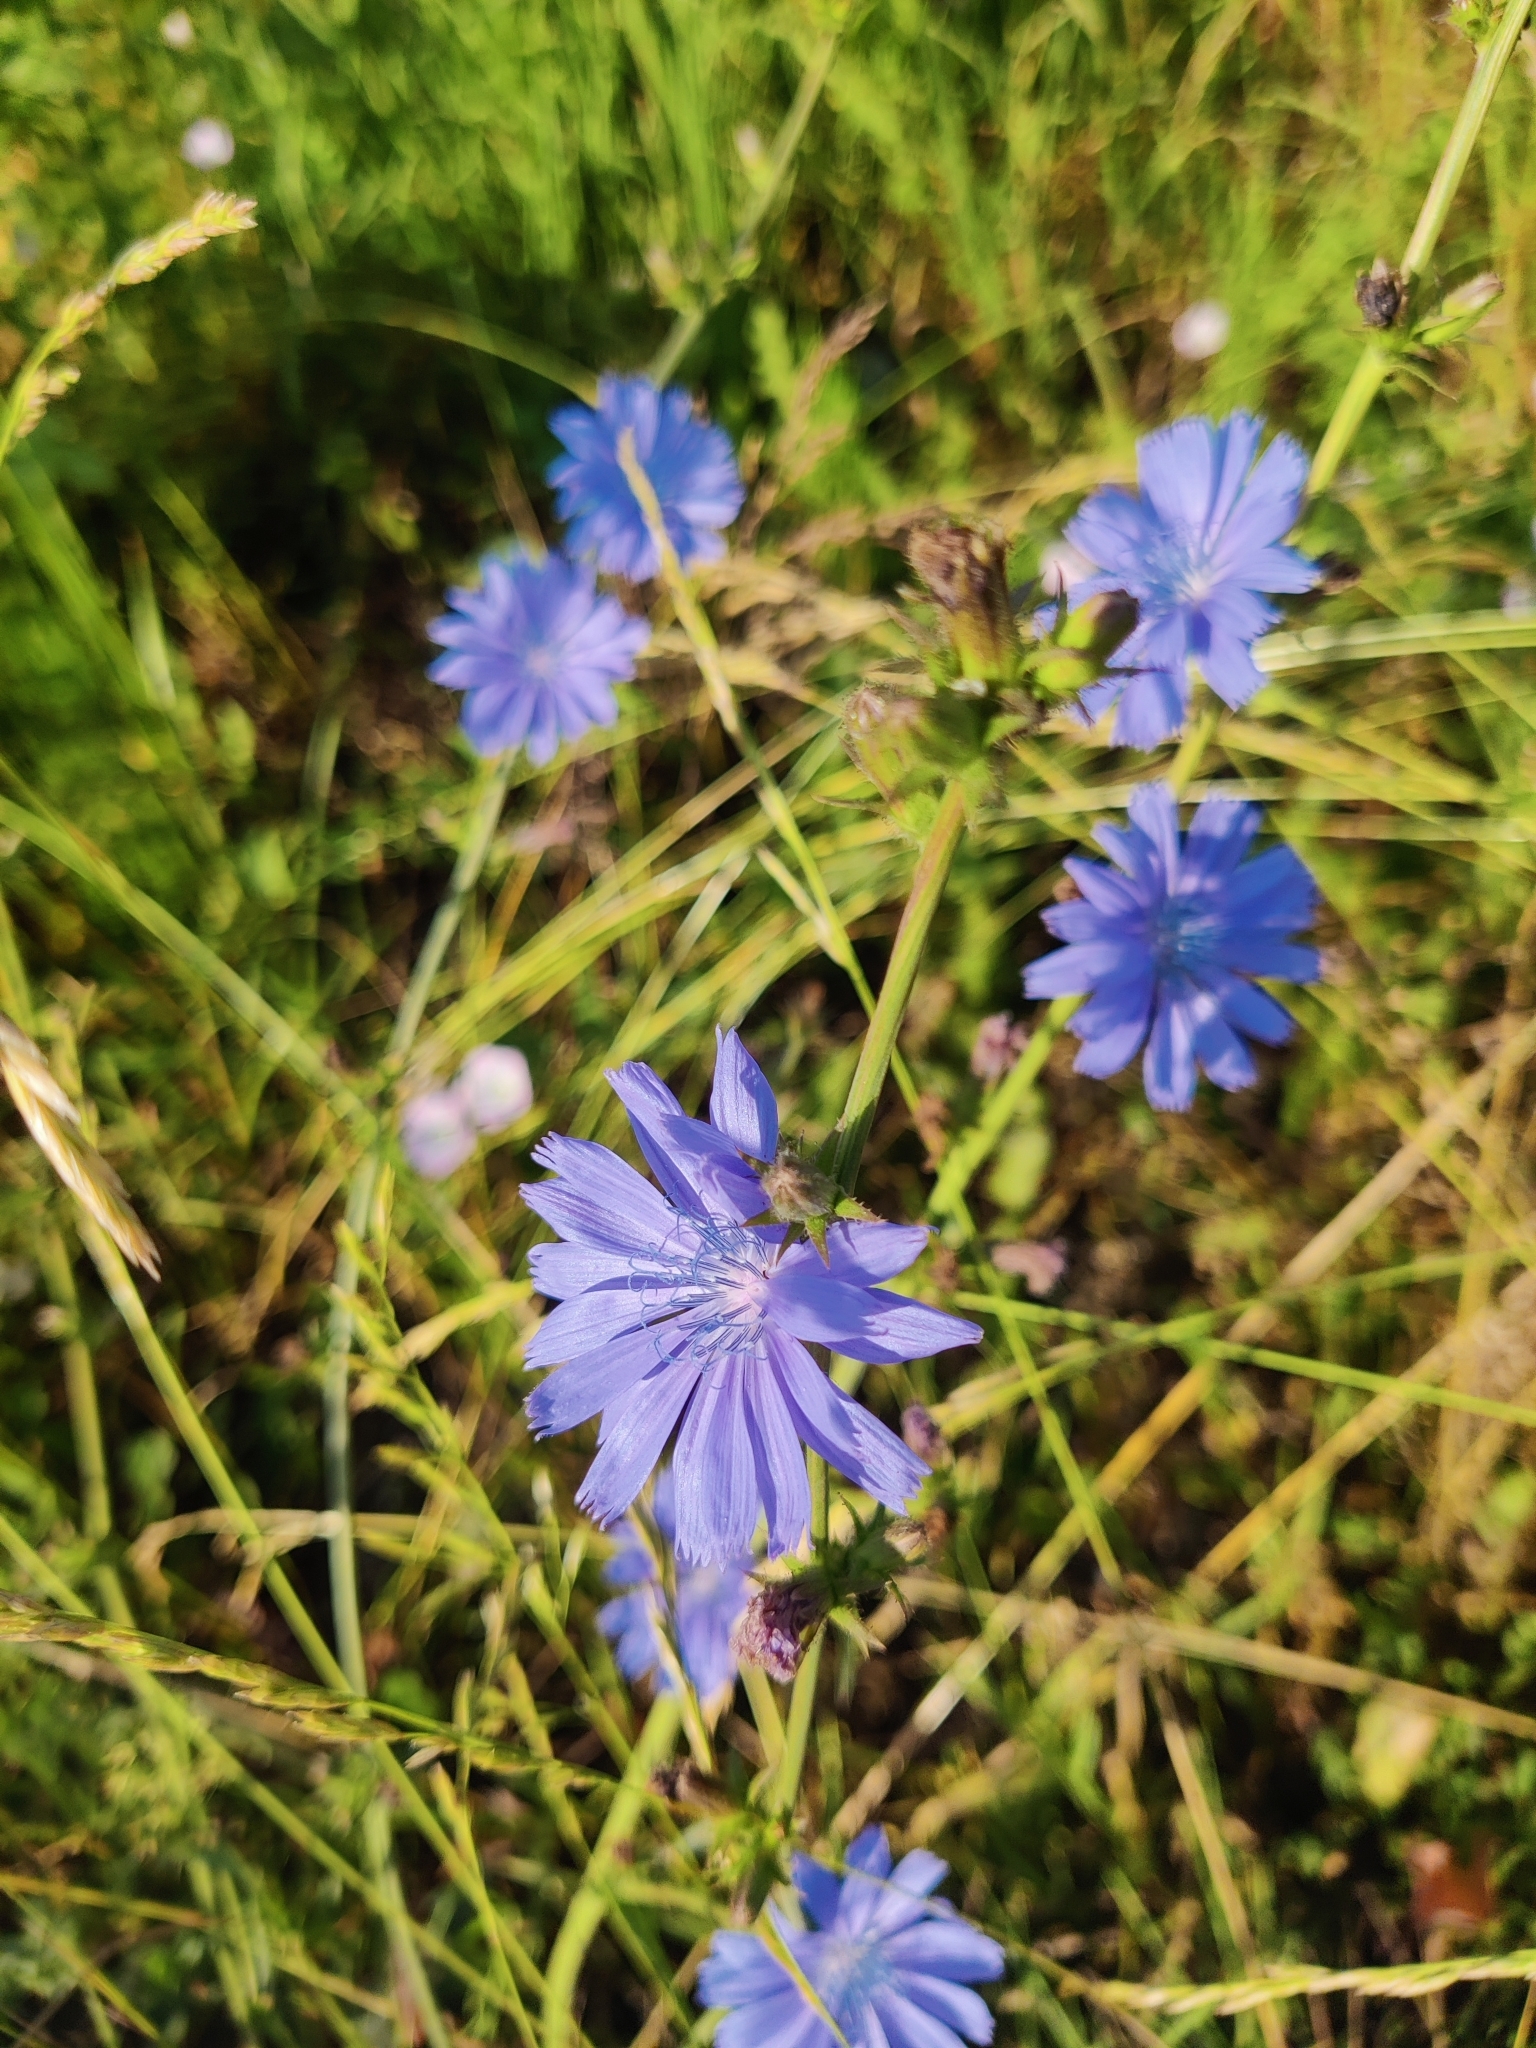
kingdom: Plantae
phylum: Tracheophyta
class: Magnoliopsida
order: Asterales
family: Asteraceae
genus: Cichorium
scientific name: Cichorium intybus
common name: Chicory
